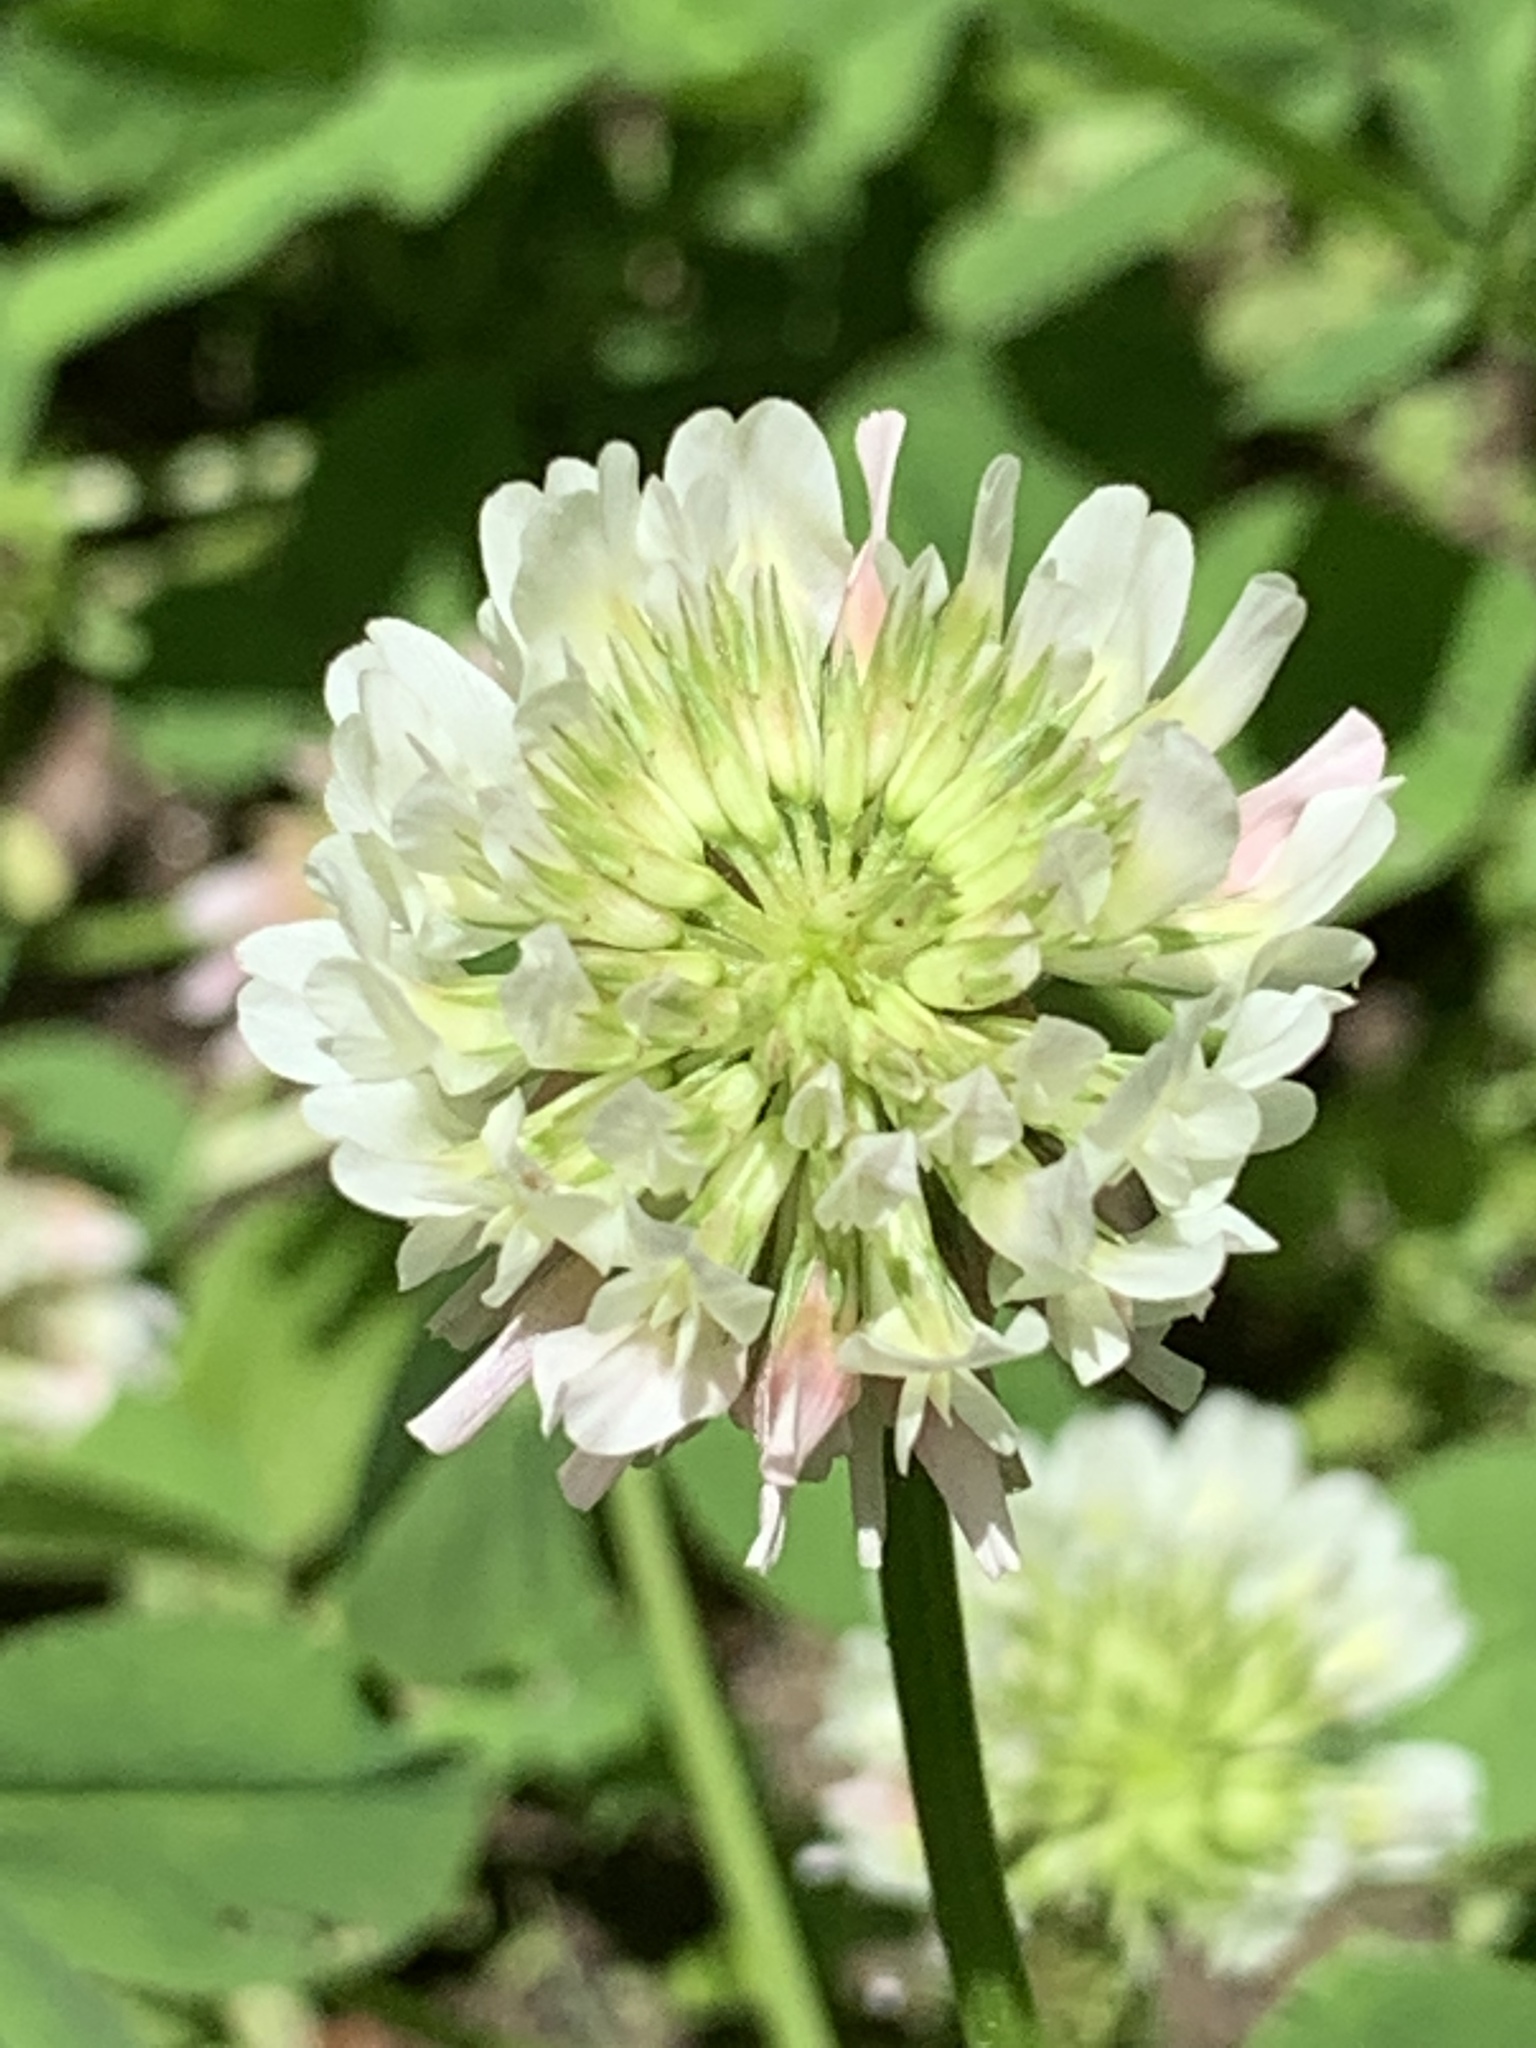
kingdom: Plantae
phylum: Tracheophyta
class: Magnoliopsida
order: Fabales
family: Fabaceae
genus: Trifolium
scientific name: Trifolium repens
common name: White clover
